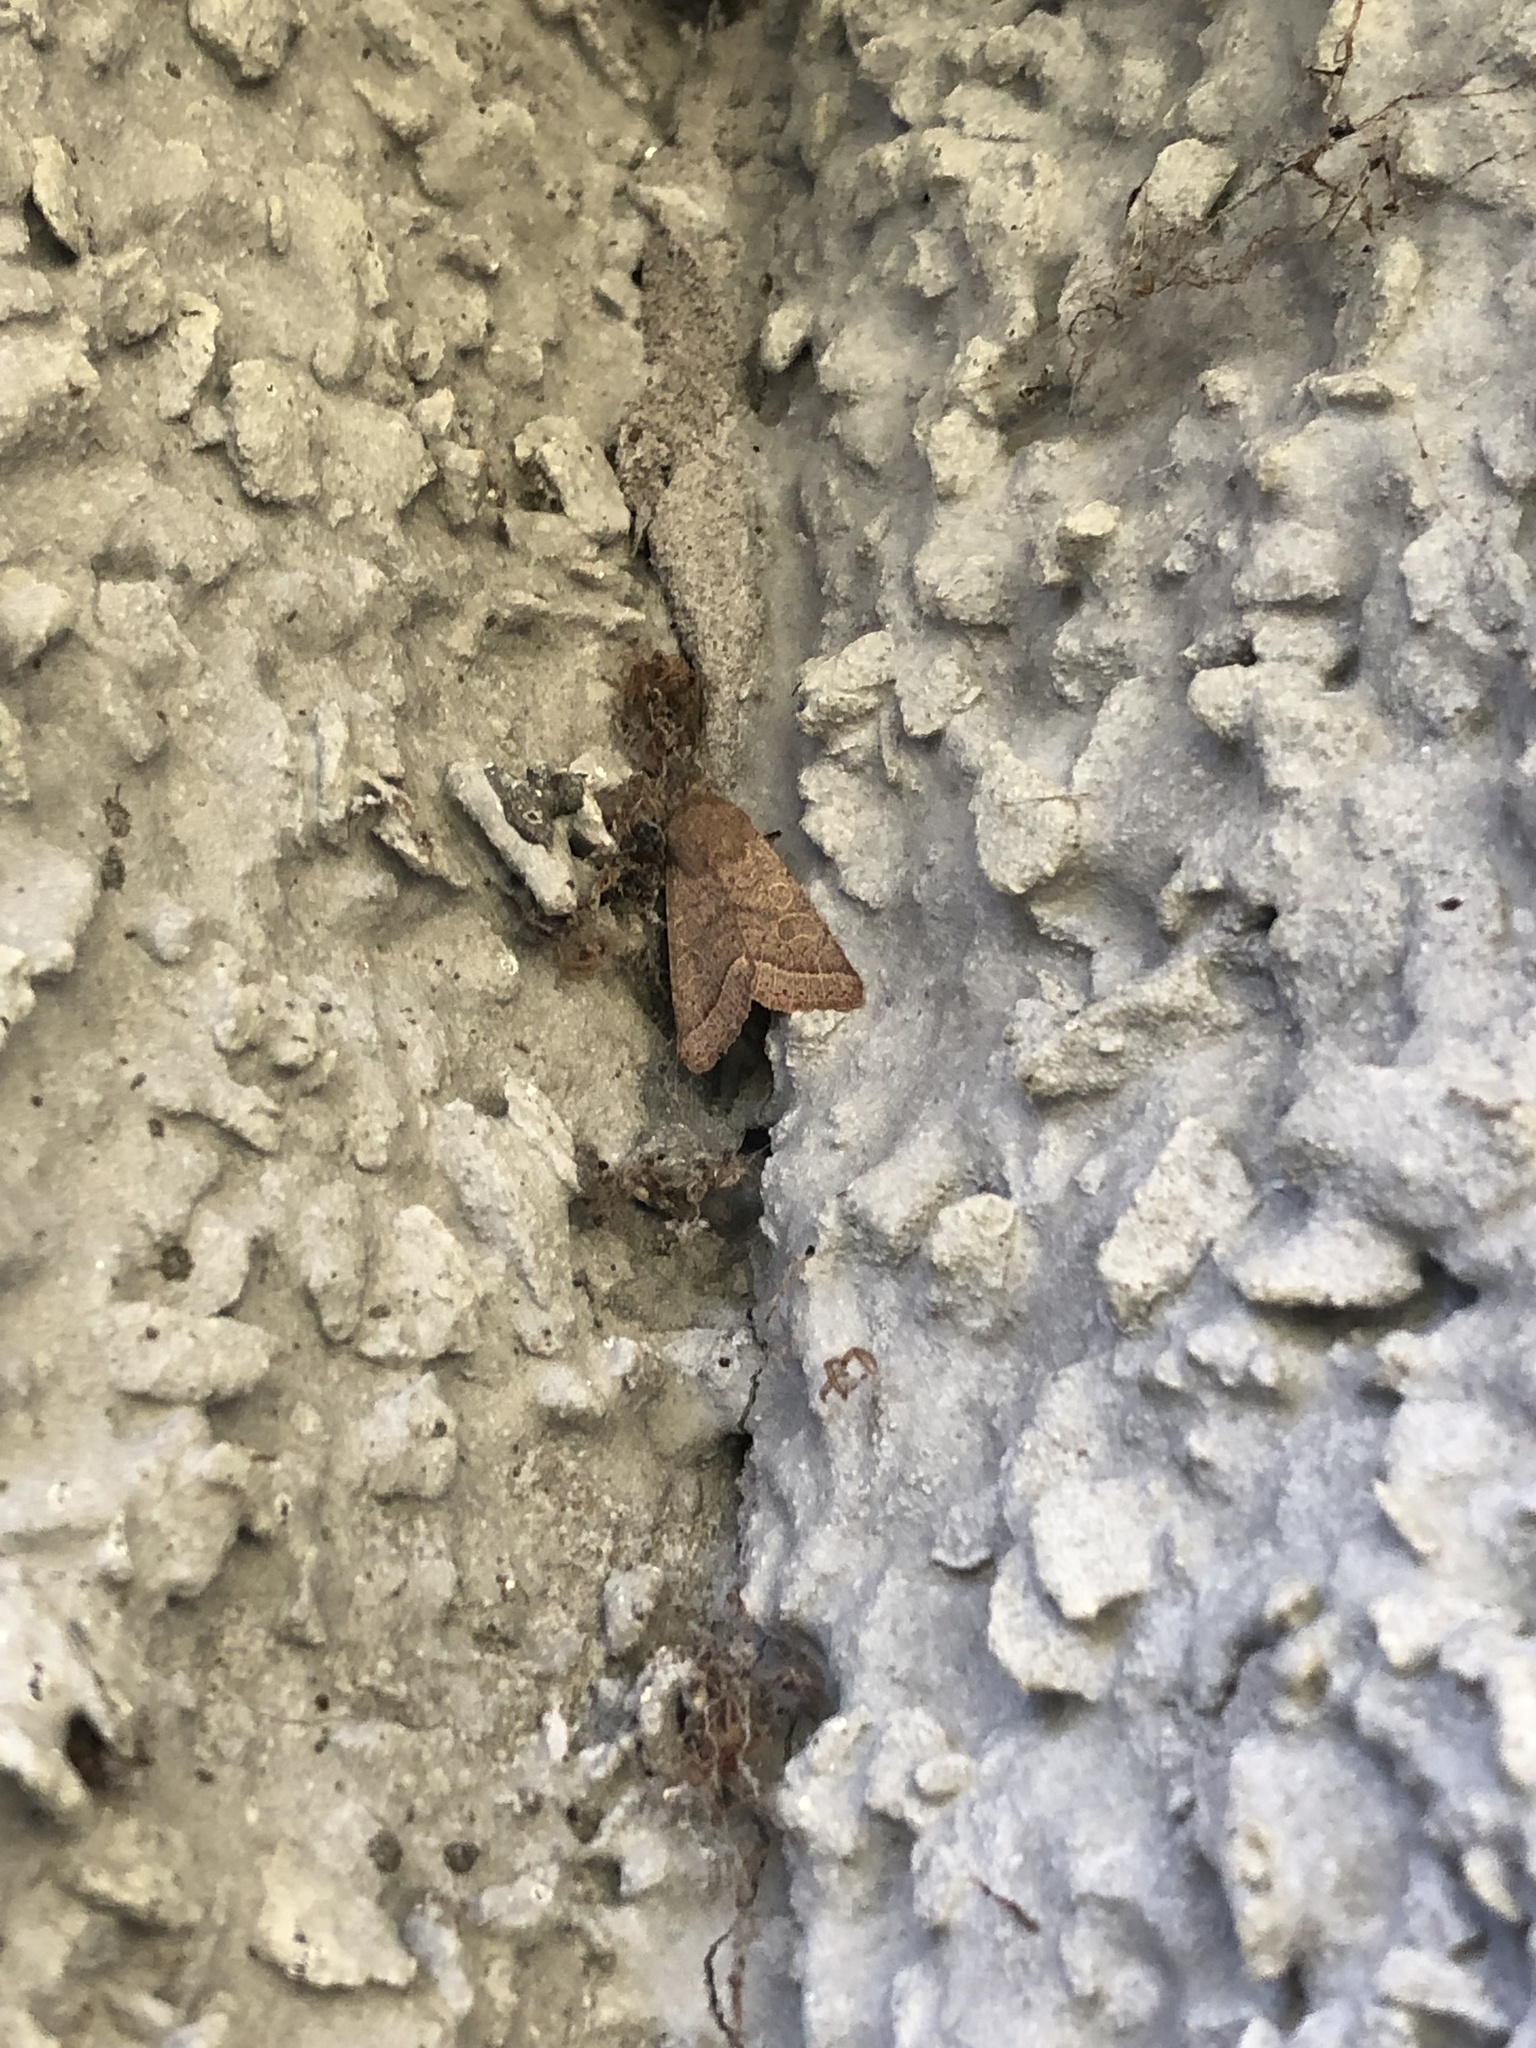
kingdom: Animalia
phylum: Arthropoda
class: Insecta
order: Lepidoptera
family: Noctuidae
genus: Orthosia
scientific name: Orthosia cerasi
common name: Common quaker
